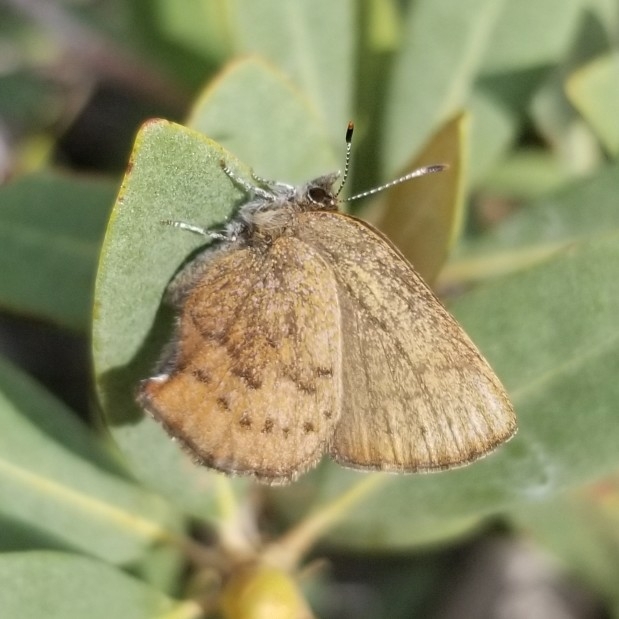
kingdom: Animalia
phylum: Arthropoda
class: Insecta
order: Lepidoptera
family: Lycaenidae
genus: Incisalia
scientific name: Incisalia irioides
